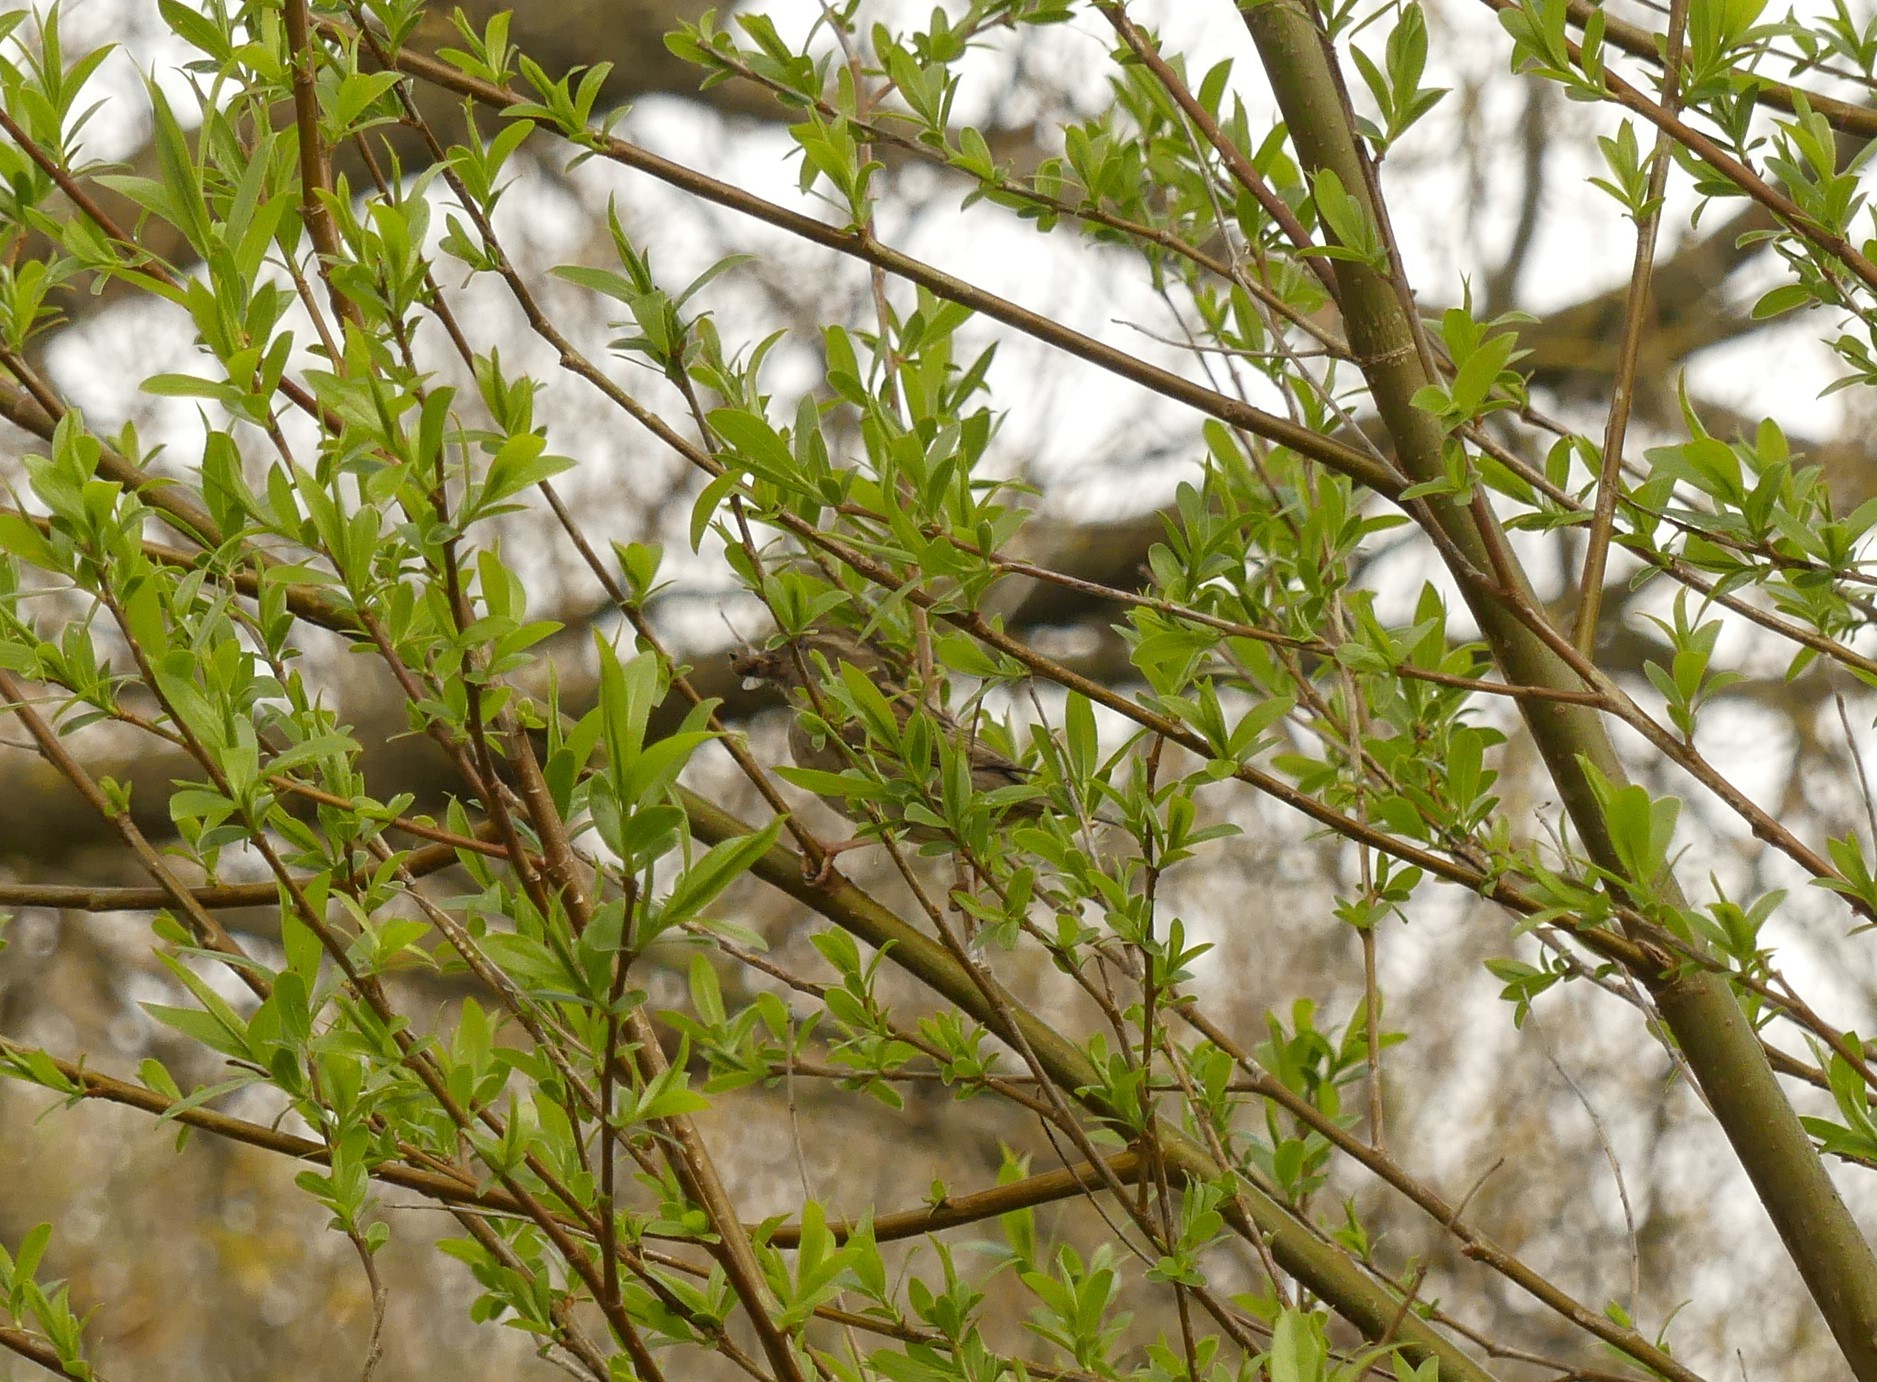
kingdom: Animalia
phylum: Chordata
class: Aves
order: Passeriformes
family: Passeridae
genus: Passer
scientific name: Passer domesticus
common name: House sparrow
